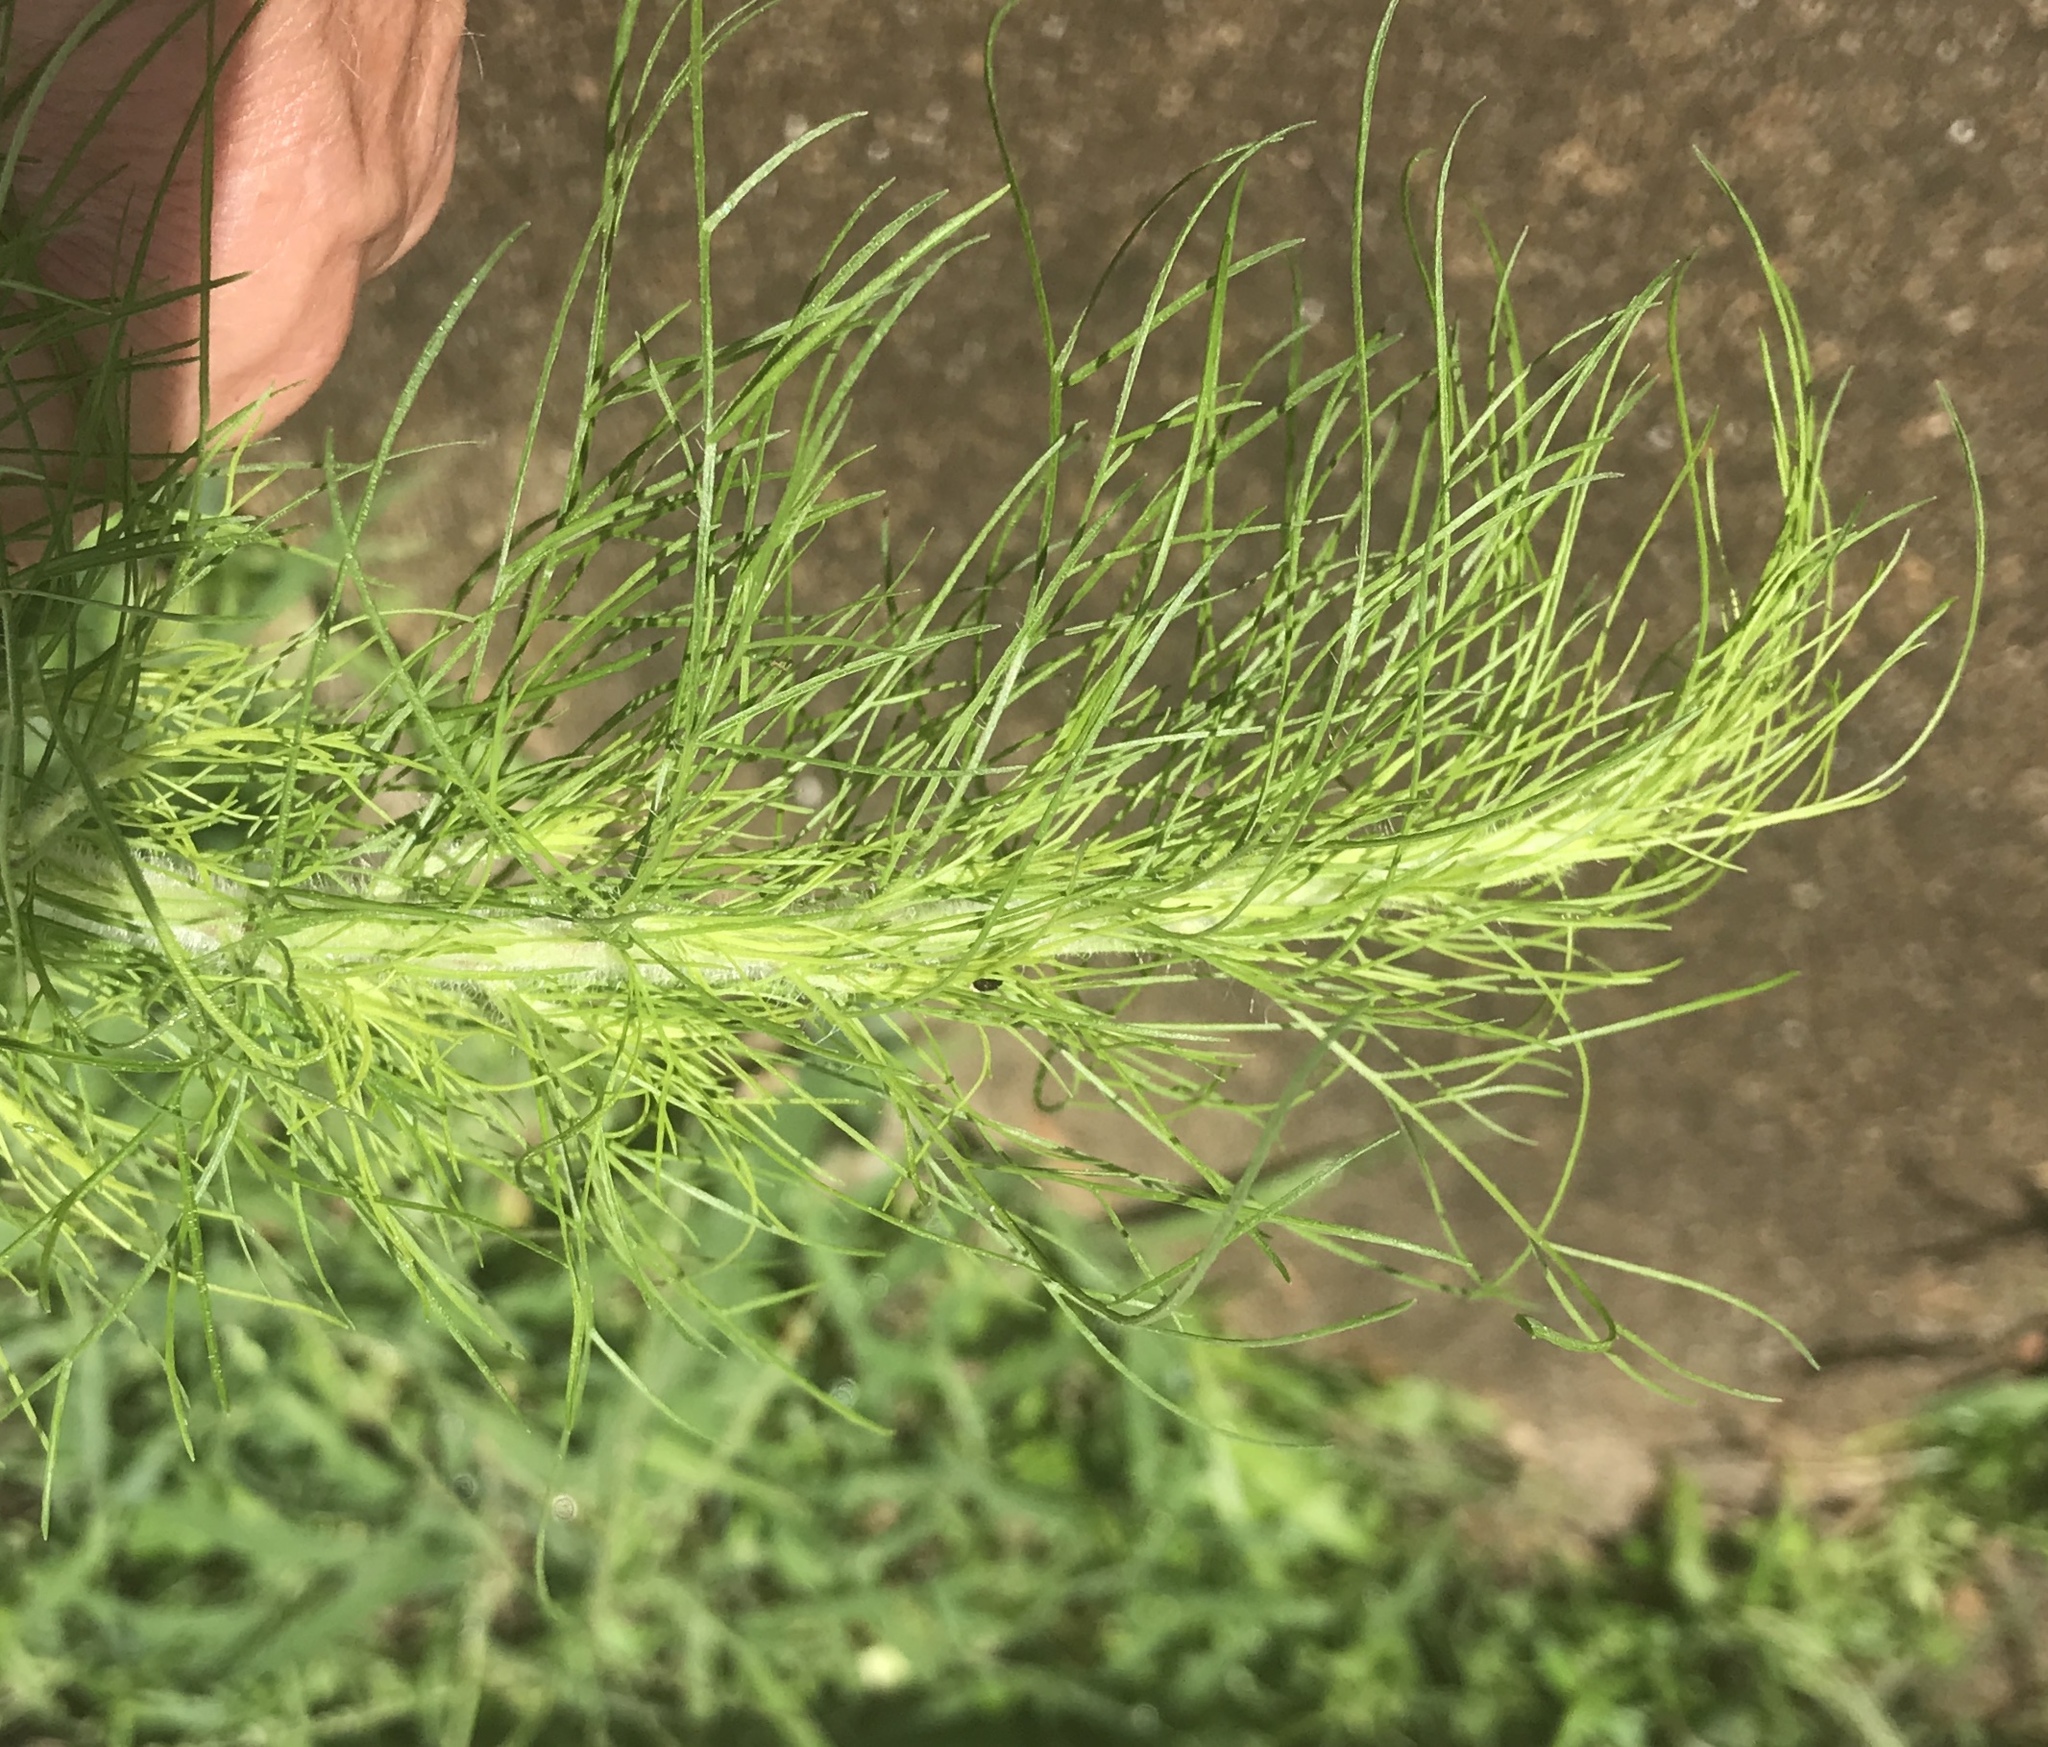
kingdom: Plantae
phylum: Tracheophyta
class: Magnoliopsida
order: Asterales
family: Asteraceae
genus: Eupatorium
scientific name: Eupatorium capillifolium
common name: Dog-fennel
